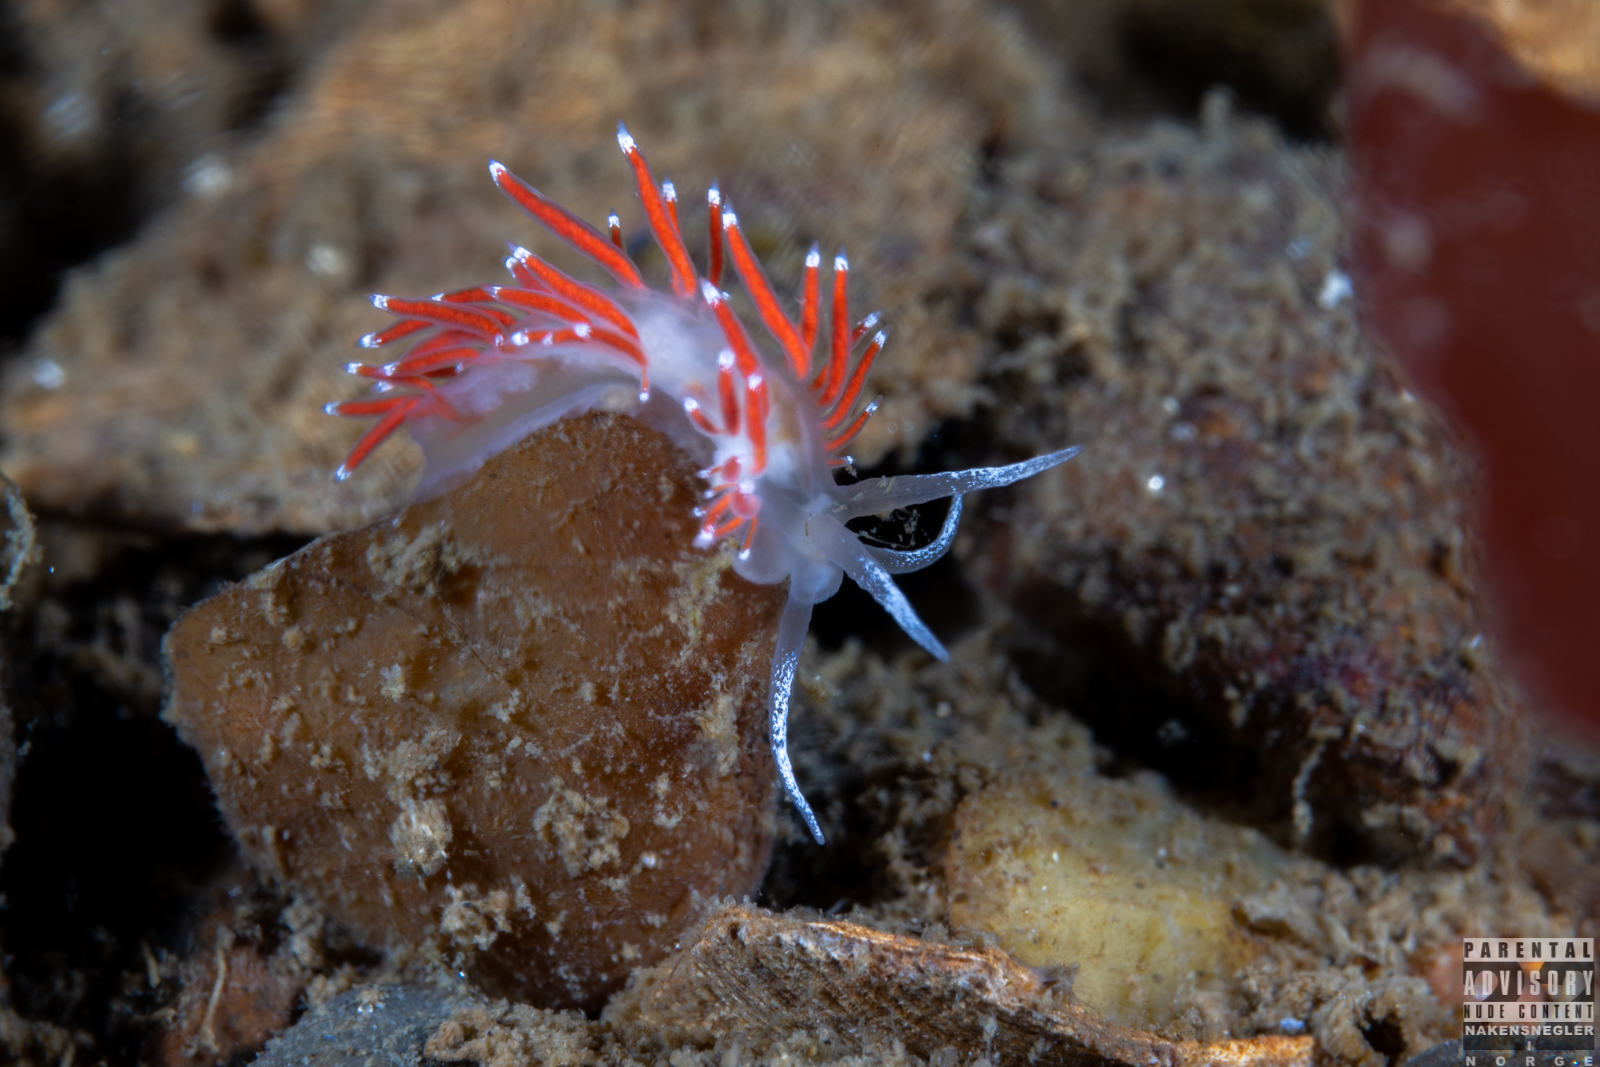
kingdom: Animalia
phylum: Mollusca
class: Gastropoda
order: Nudibranchia
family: Coryphellidae
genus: Coryphella
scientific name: Coryphella gracilis
